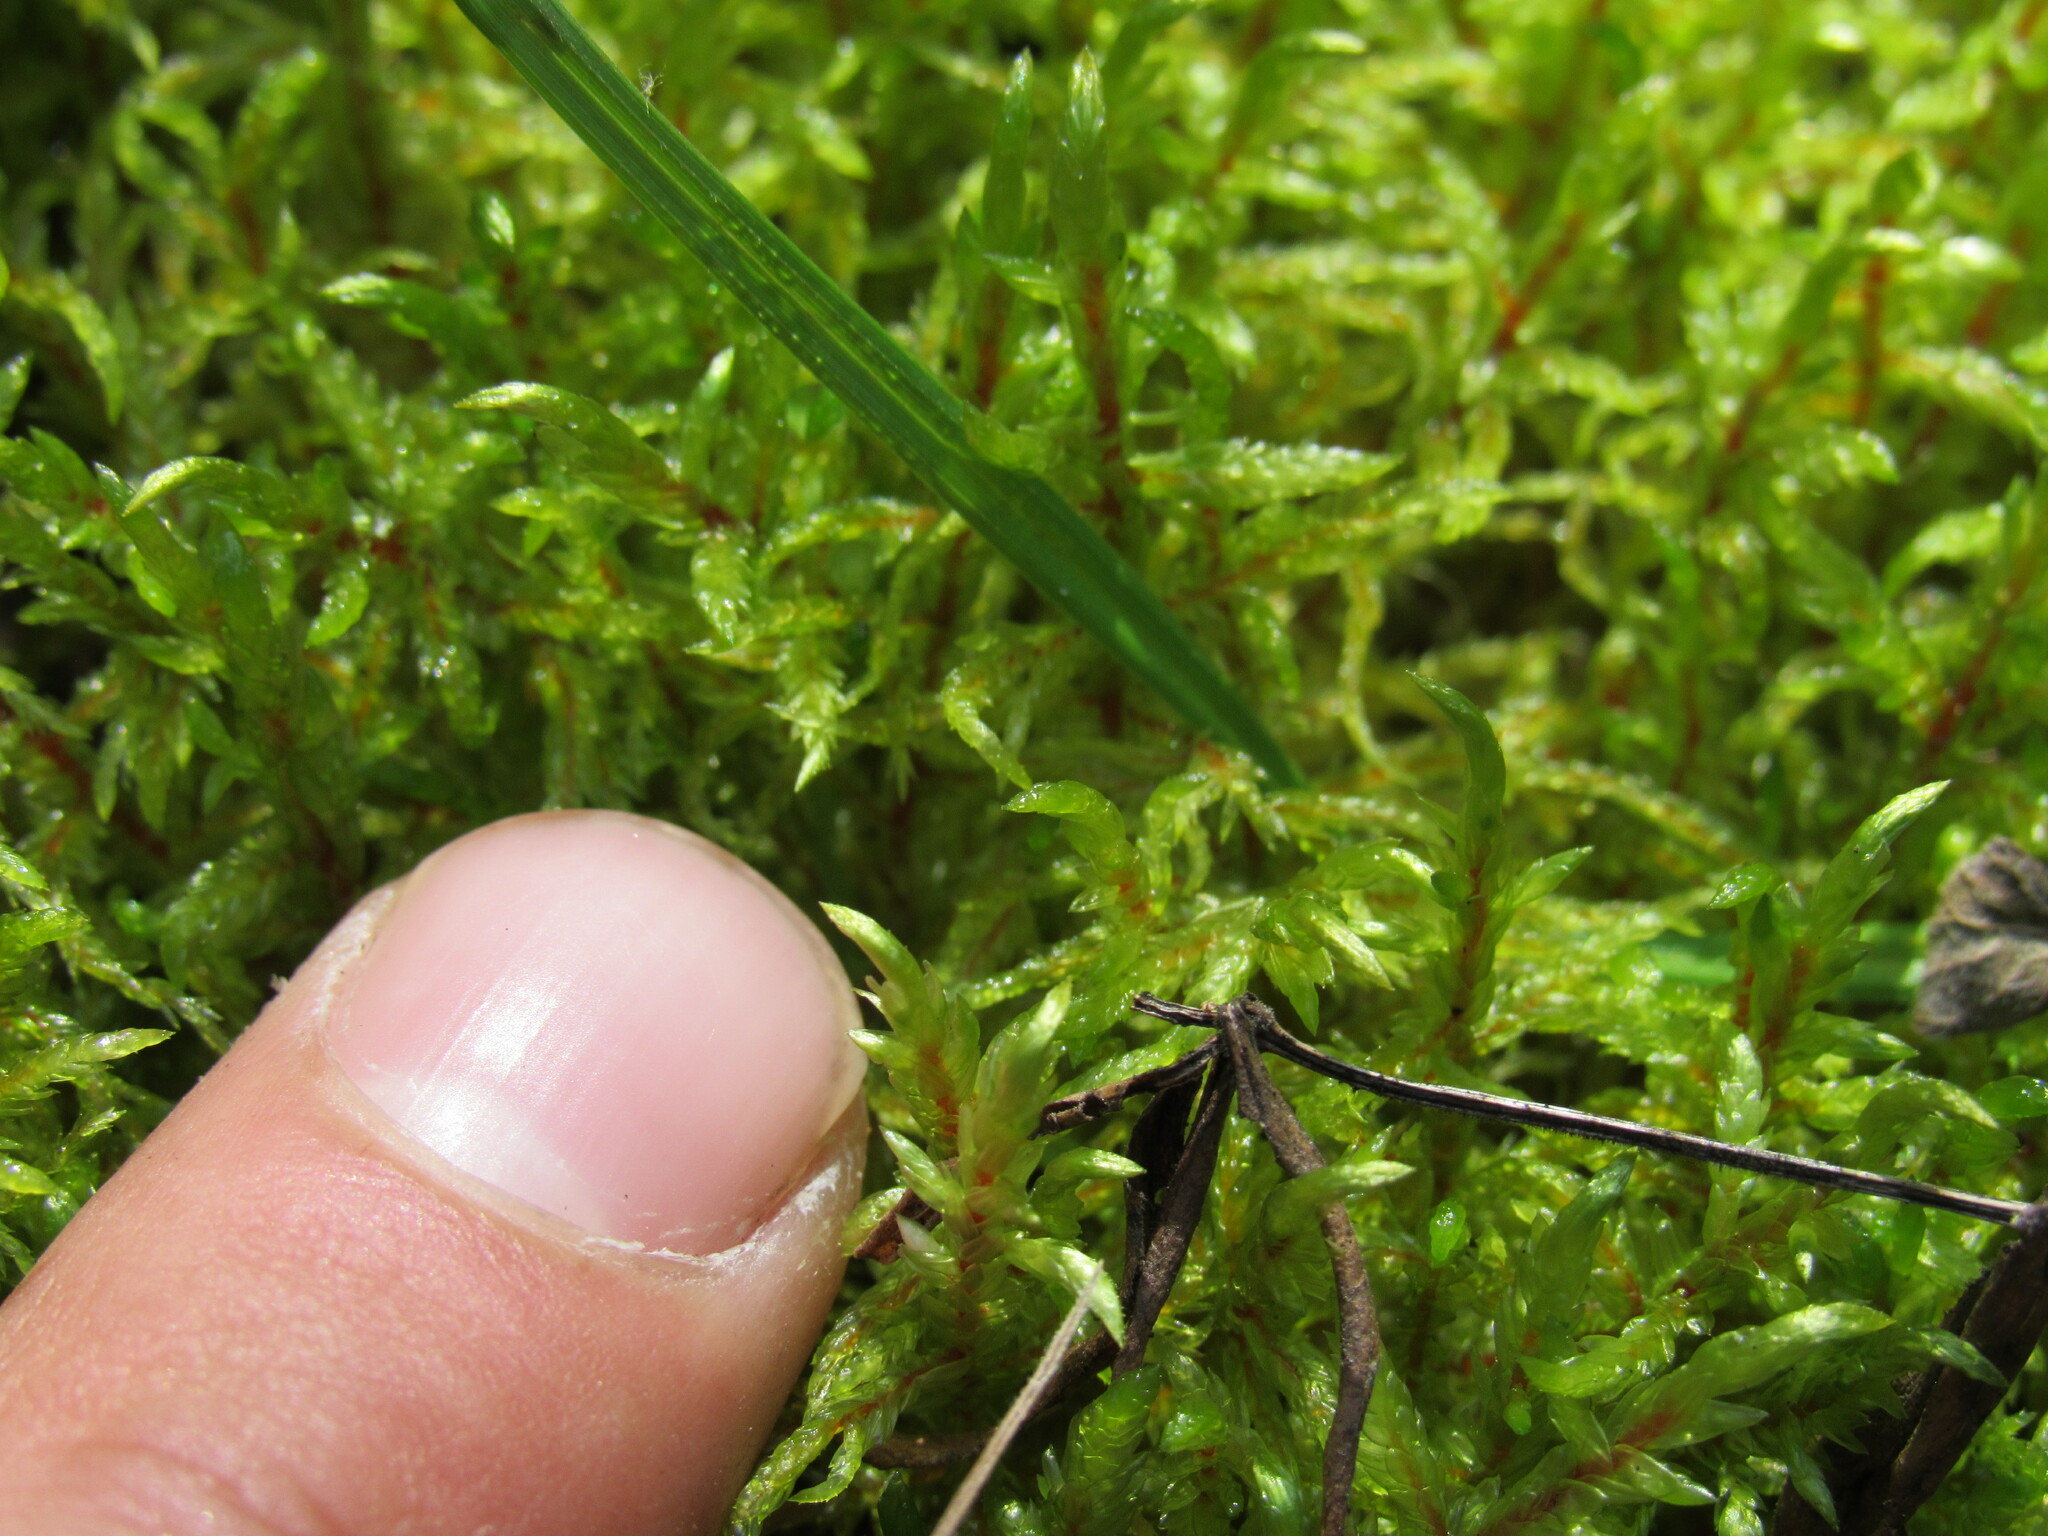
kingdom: Plantae
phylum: Bryophyta
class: Bryopsida
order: Hypnales
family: Hylocomiaceae
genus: Pleurozium
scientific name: Pleurozium schreberi
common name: Red-stemmed feather moss
